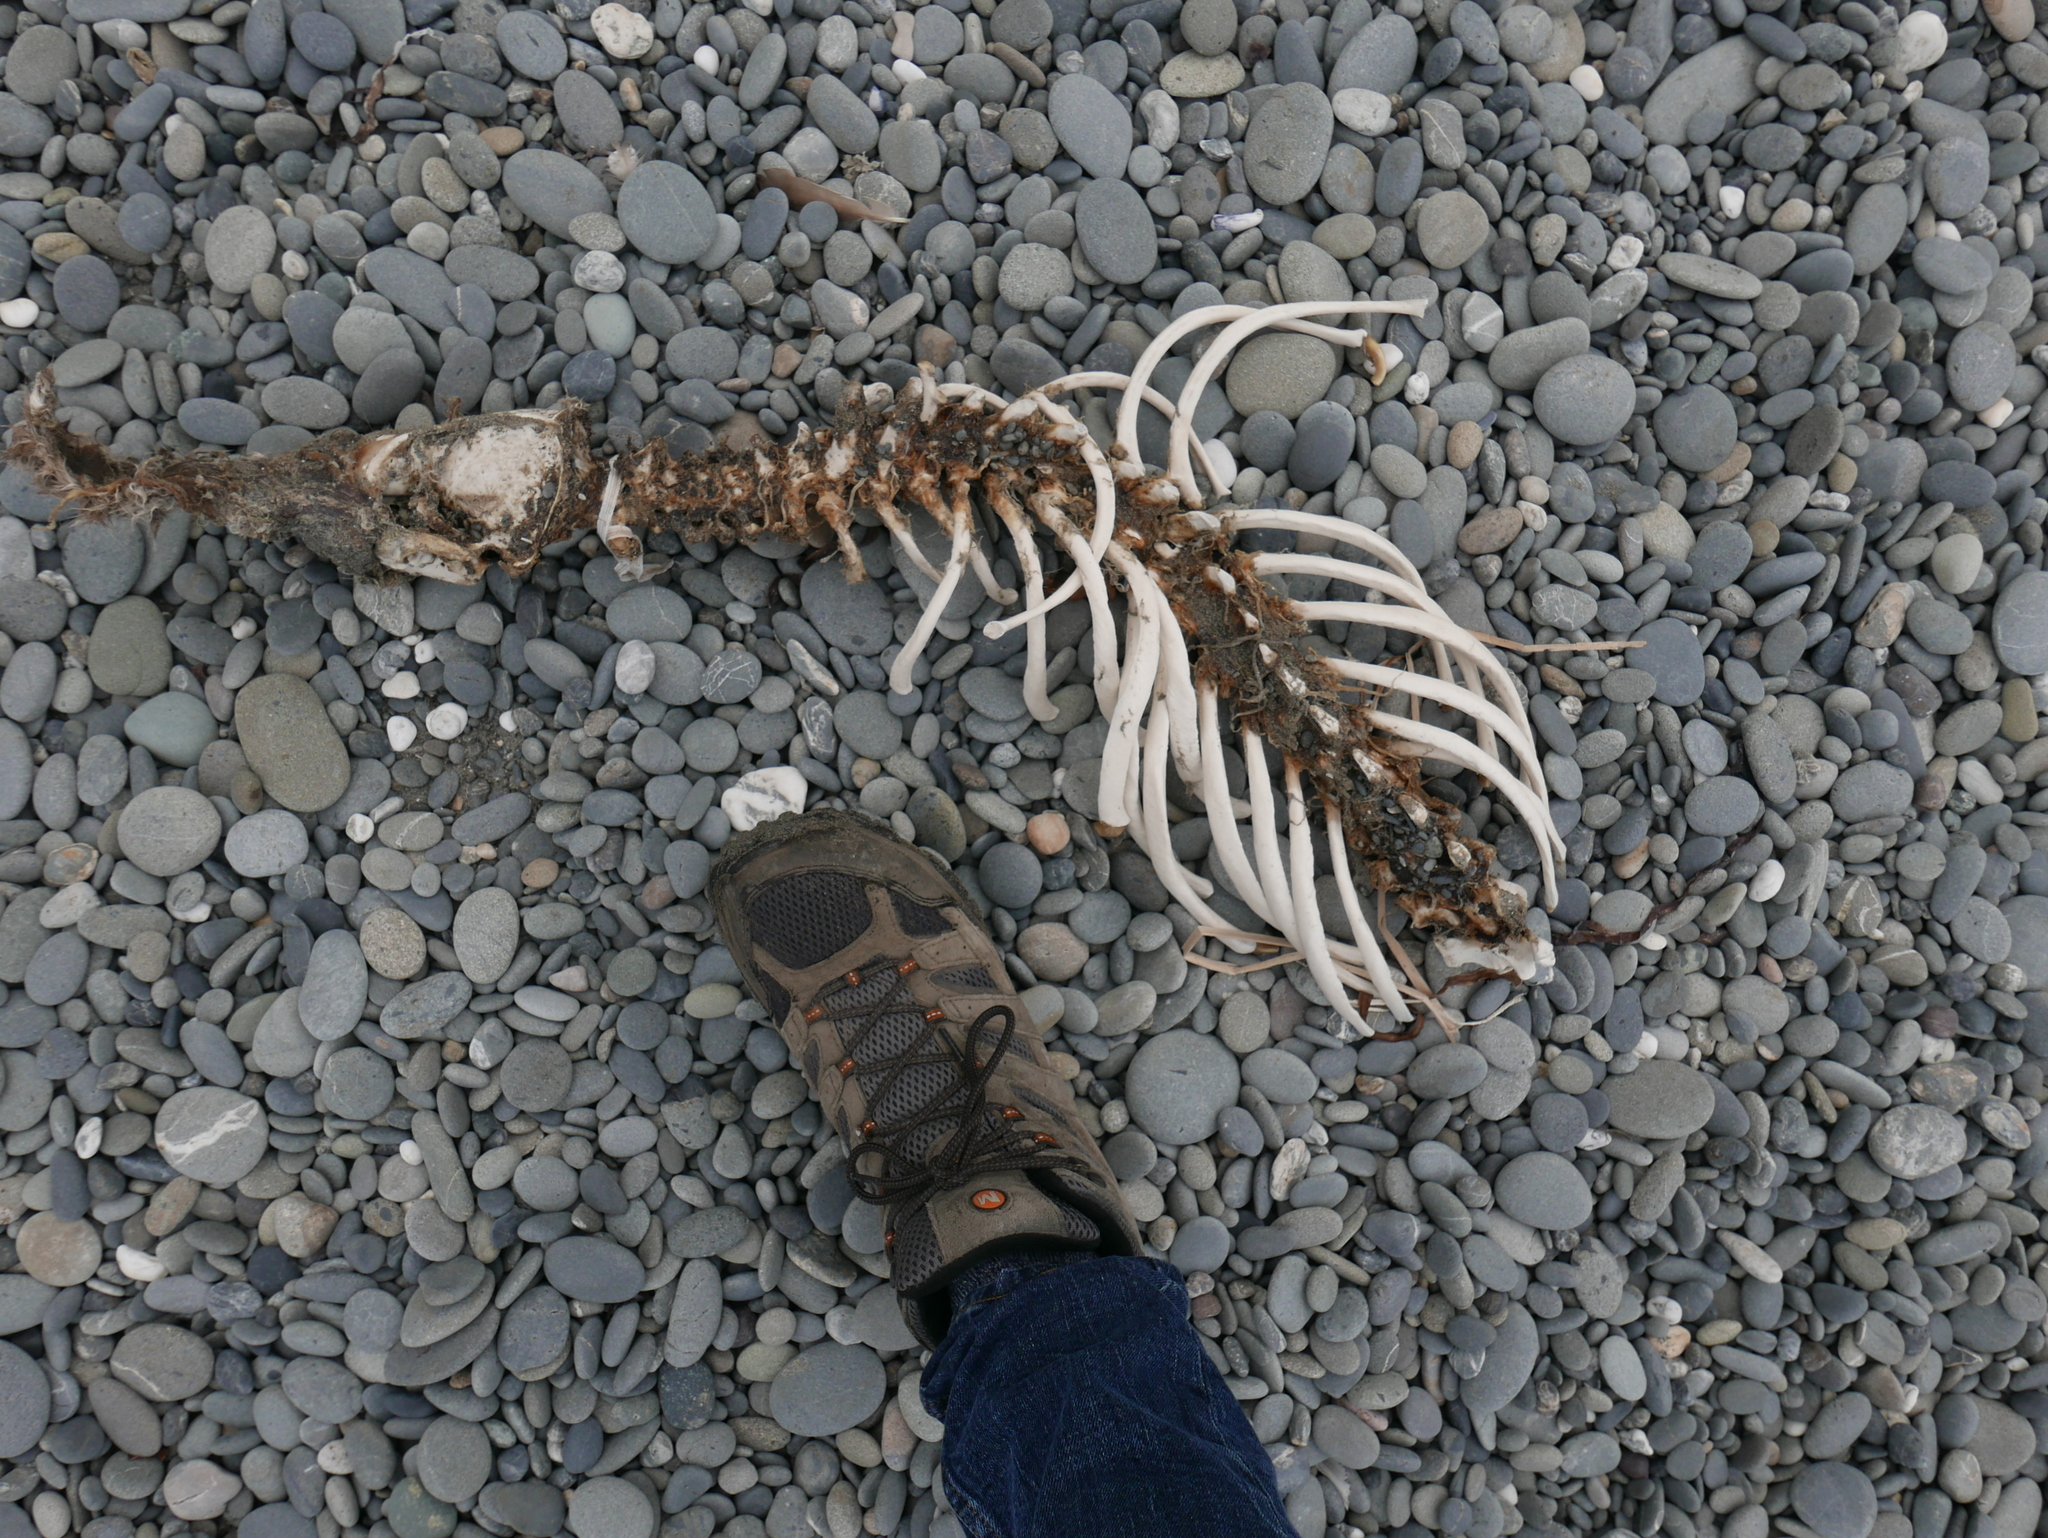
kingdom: Animalia
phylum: Chordata
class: Mammalia
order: Carnivora
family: Mustelidae
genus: Enhydra
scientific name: Enhydra lutris
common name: Sea otter
